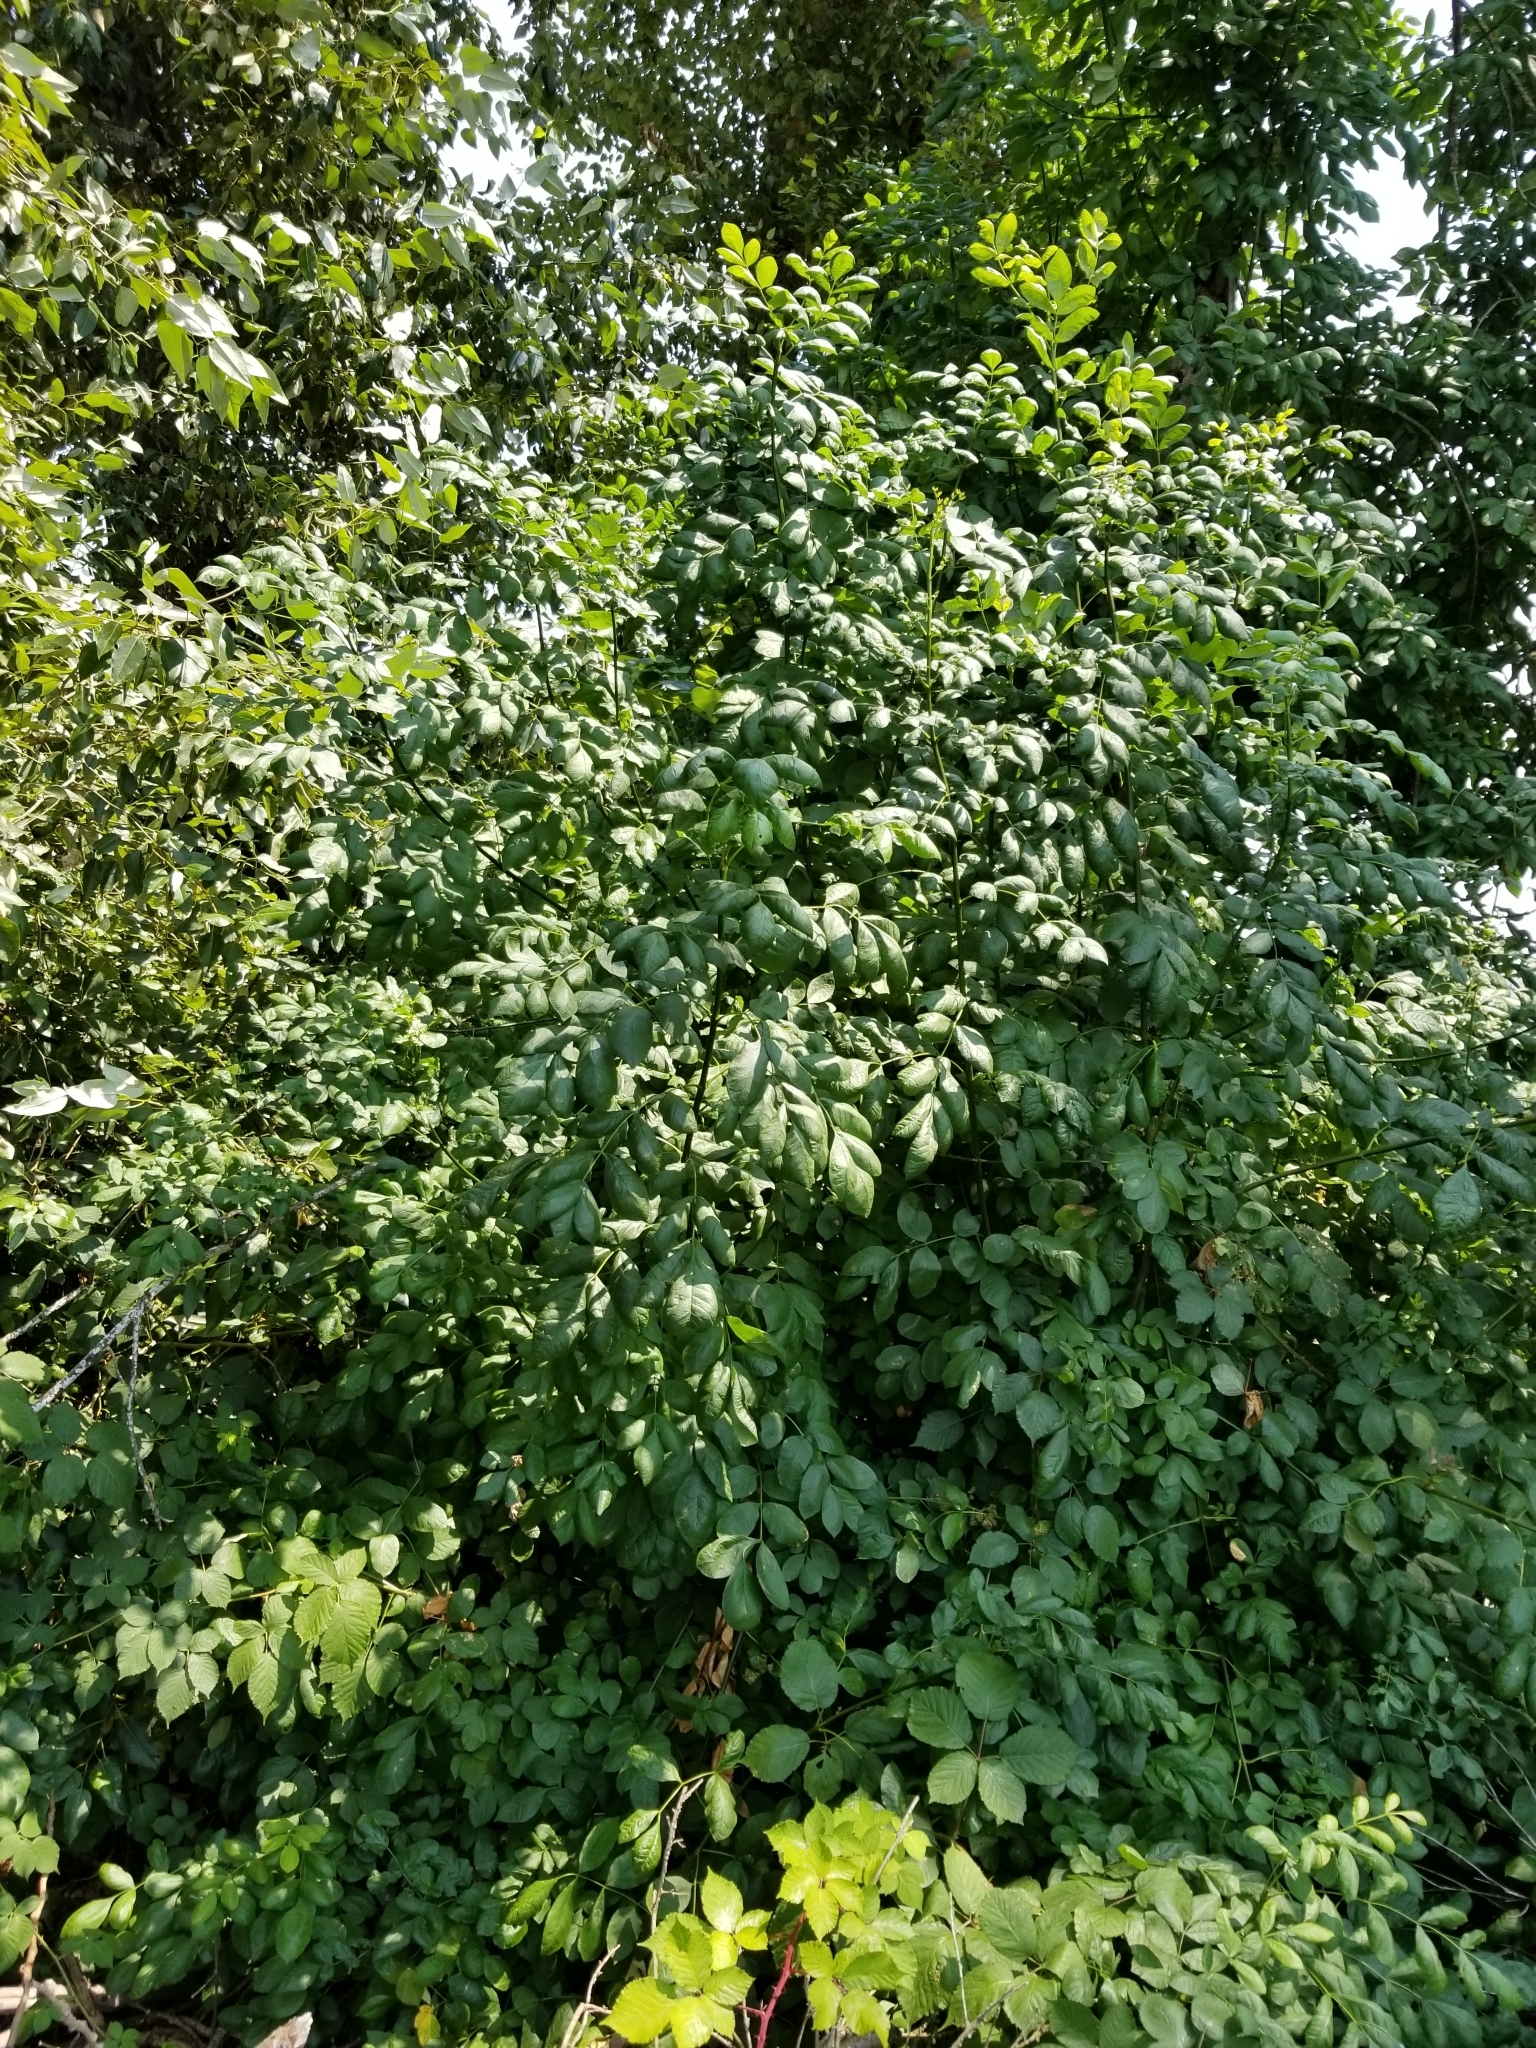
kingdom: Plantae
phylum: Tracheophyta
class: Magnoliopsida
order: Lamiales
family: Oleaceae
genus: Fraxinus
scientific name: Fraxinus latifolia
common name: Oregon ash
